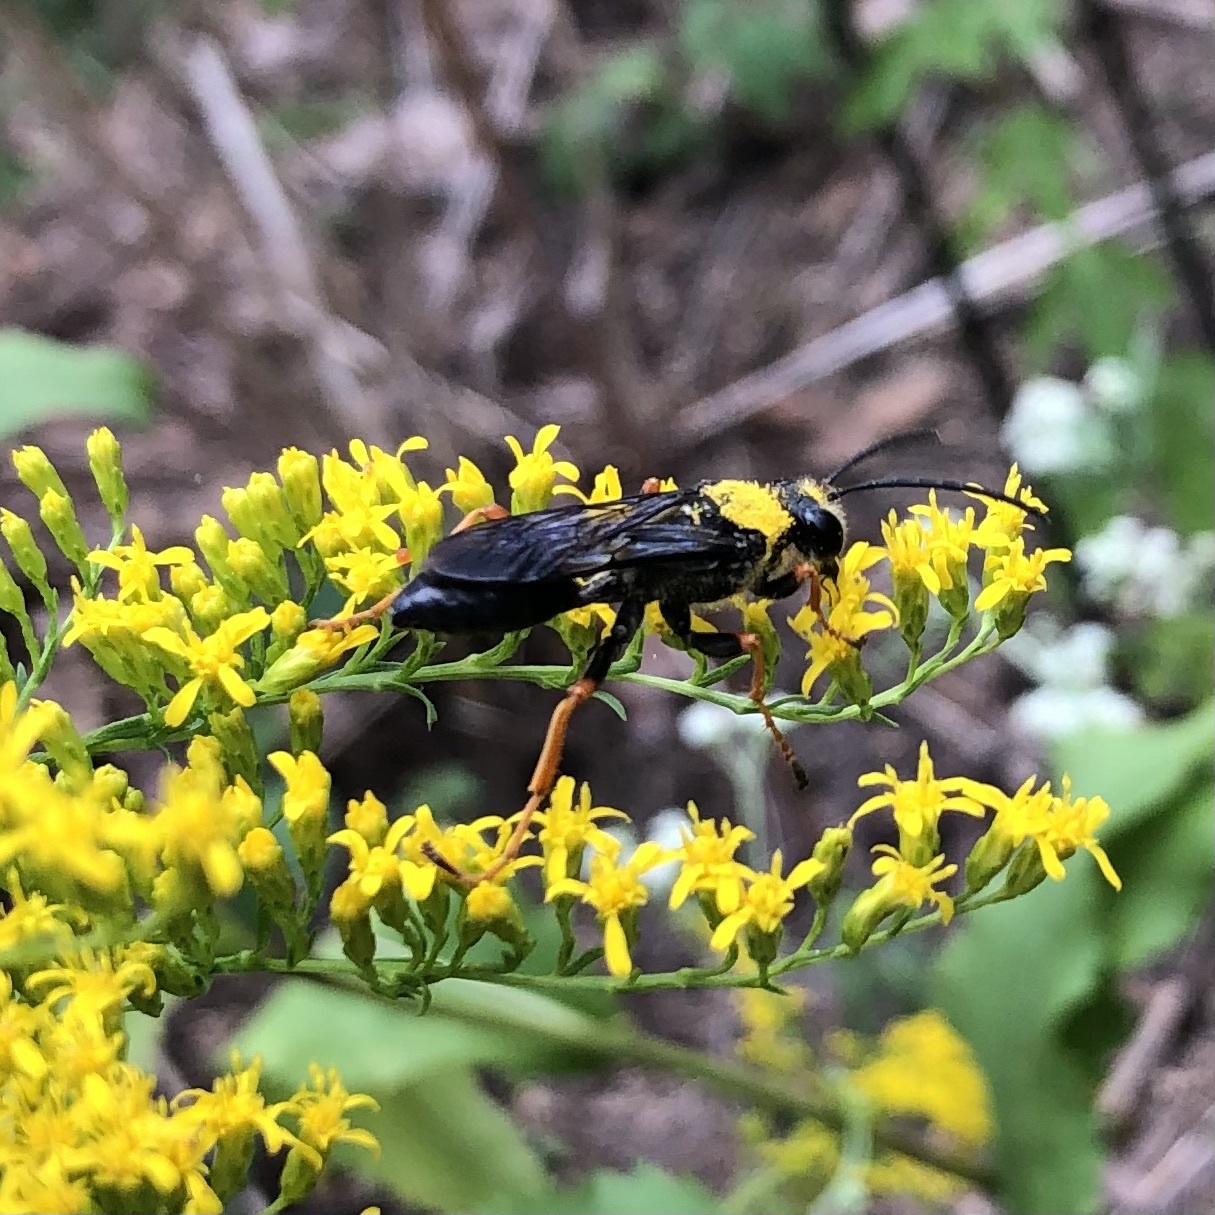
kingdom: Animalia
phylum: Arthropoda
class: Insecta
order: Hymenoptera
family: Sphecidae
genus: Sphex
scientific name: Sphex nudus
